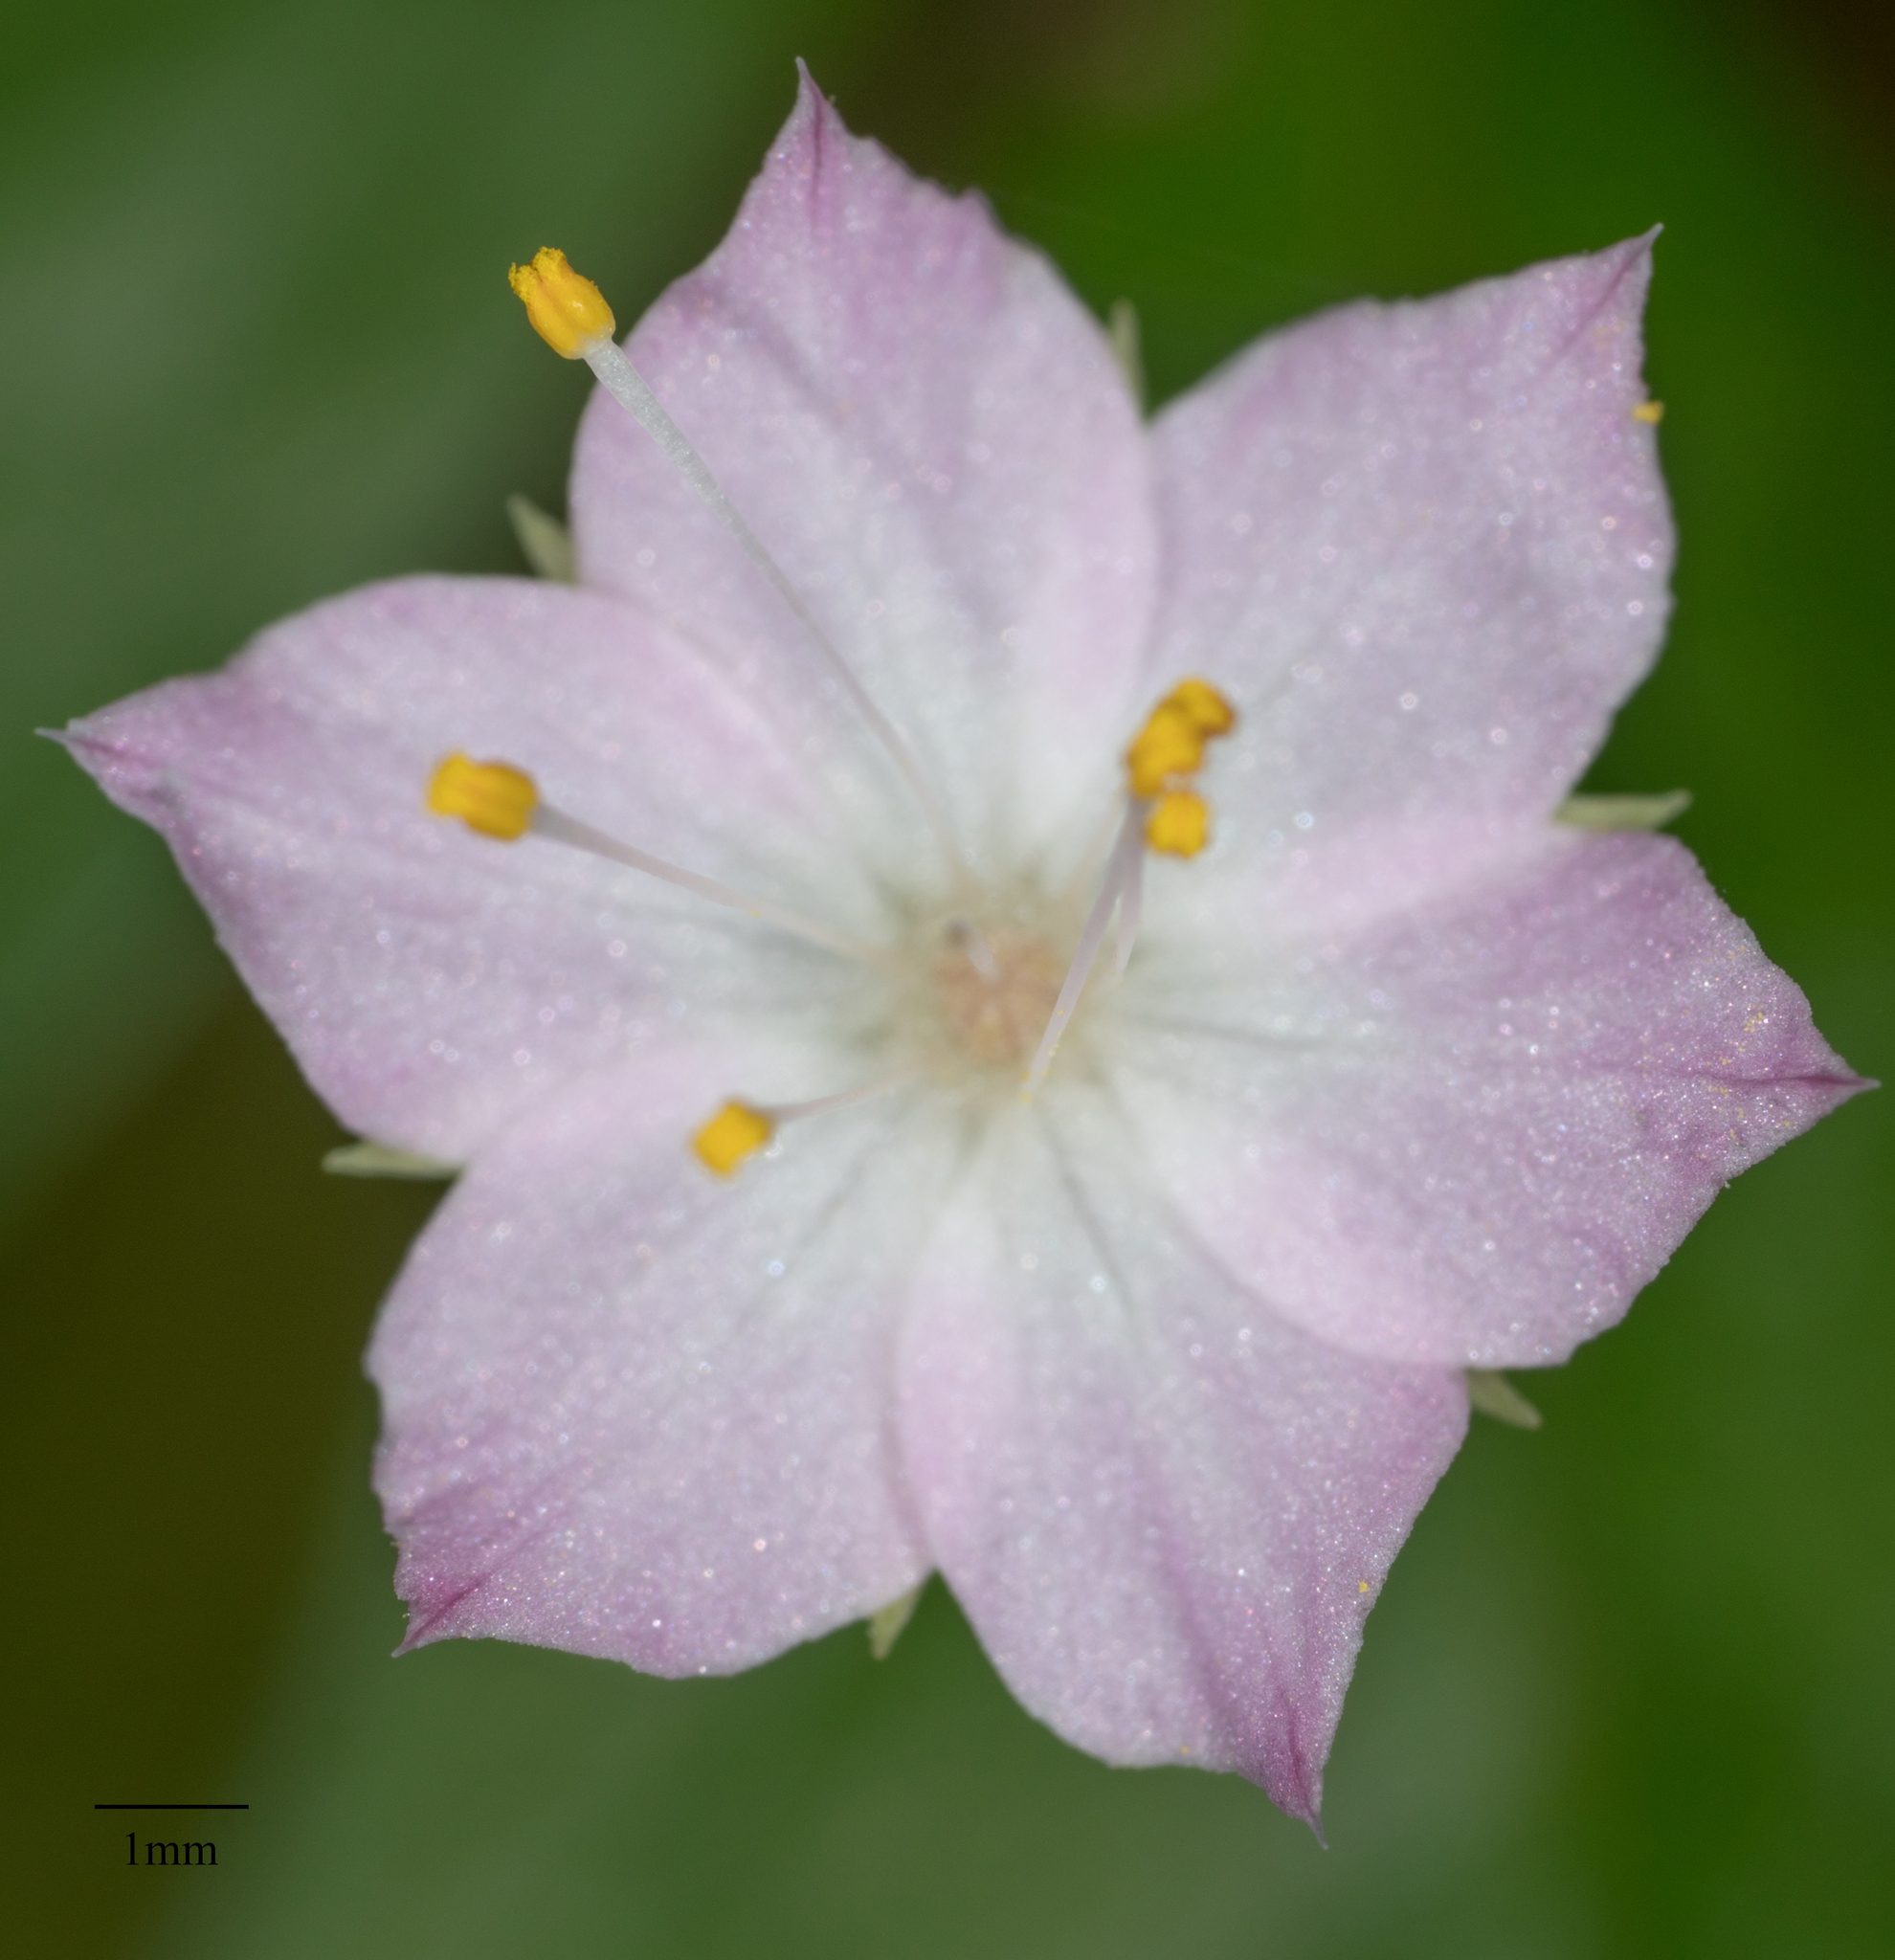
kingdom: Plantae
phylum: Tracheophyta
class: Magnoliopsida
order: Ericales
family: Primulaceae
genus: Lysimachia
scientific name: Lysimachia latifolia
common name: Pacific starflower
